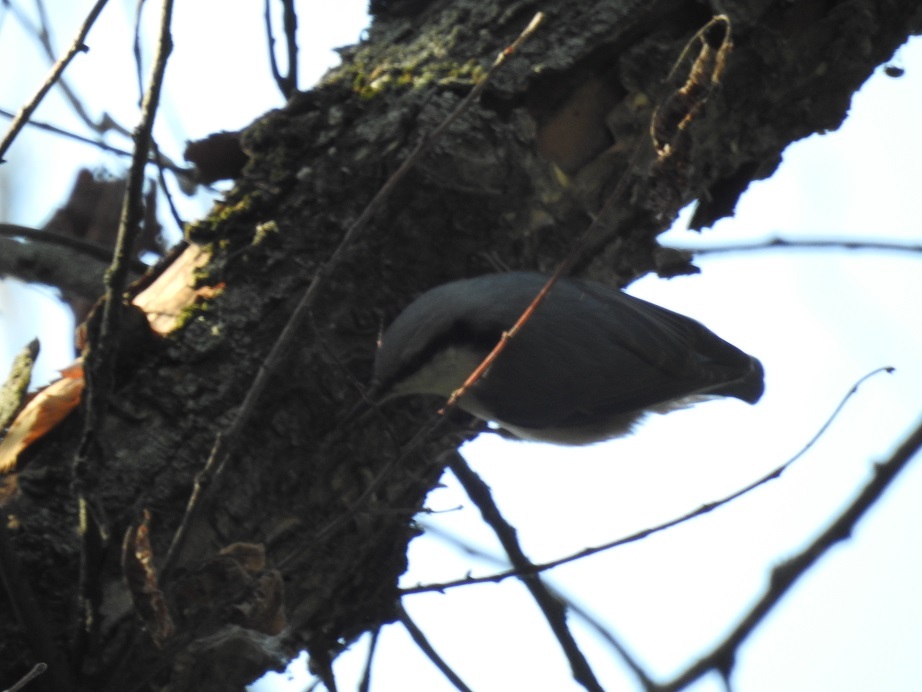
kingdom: Animalia
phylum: Chordata
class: Aves
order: Passeriformes
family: Sittidae
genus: Sitta
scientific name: Sitta europaea
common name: Eurasian nuthatch
